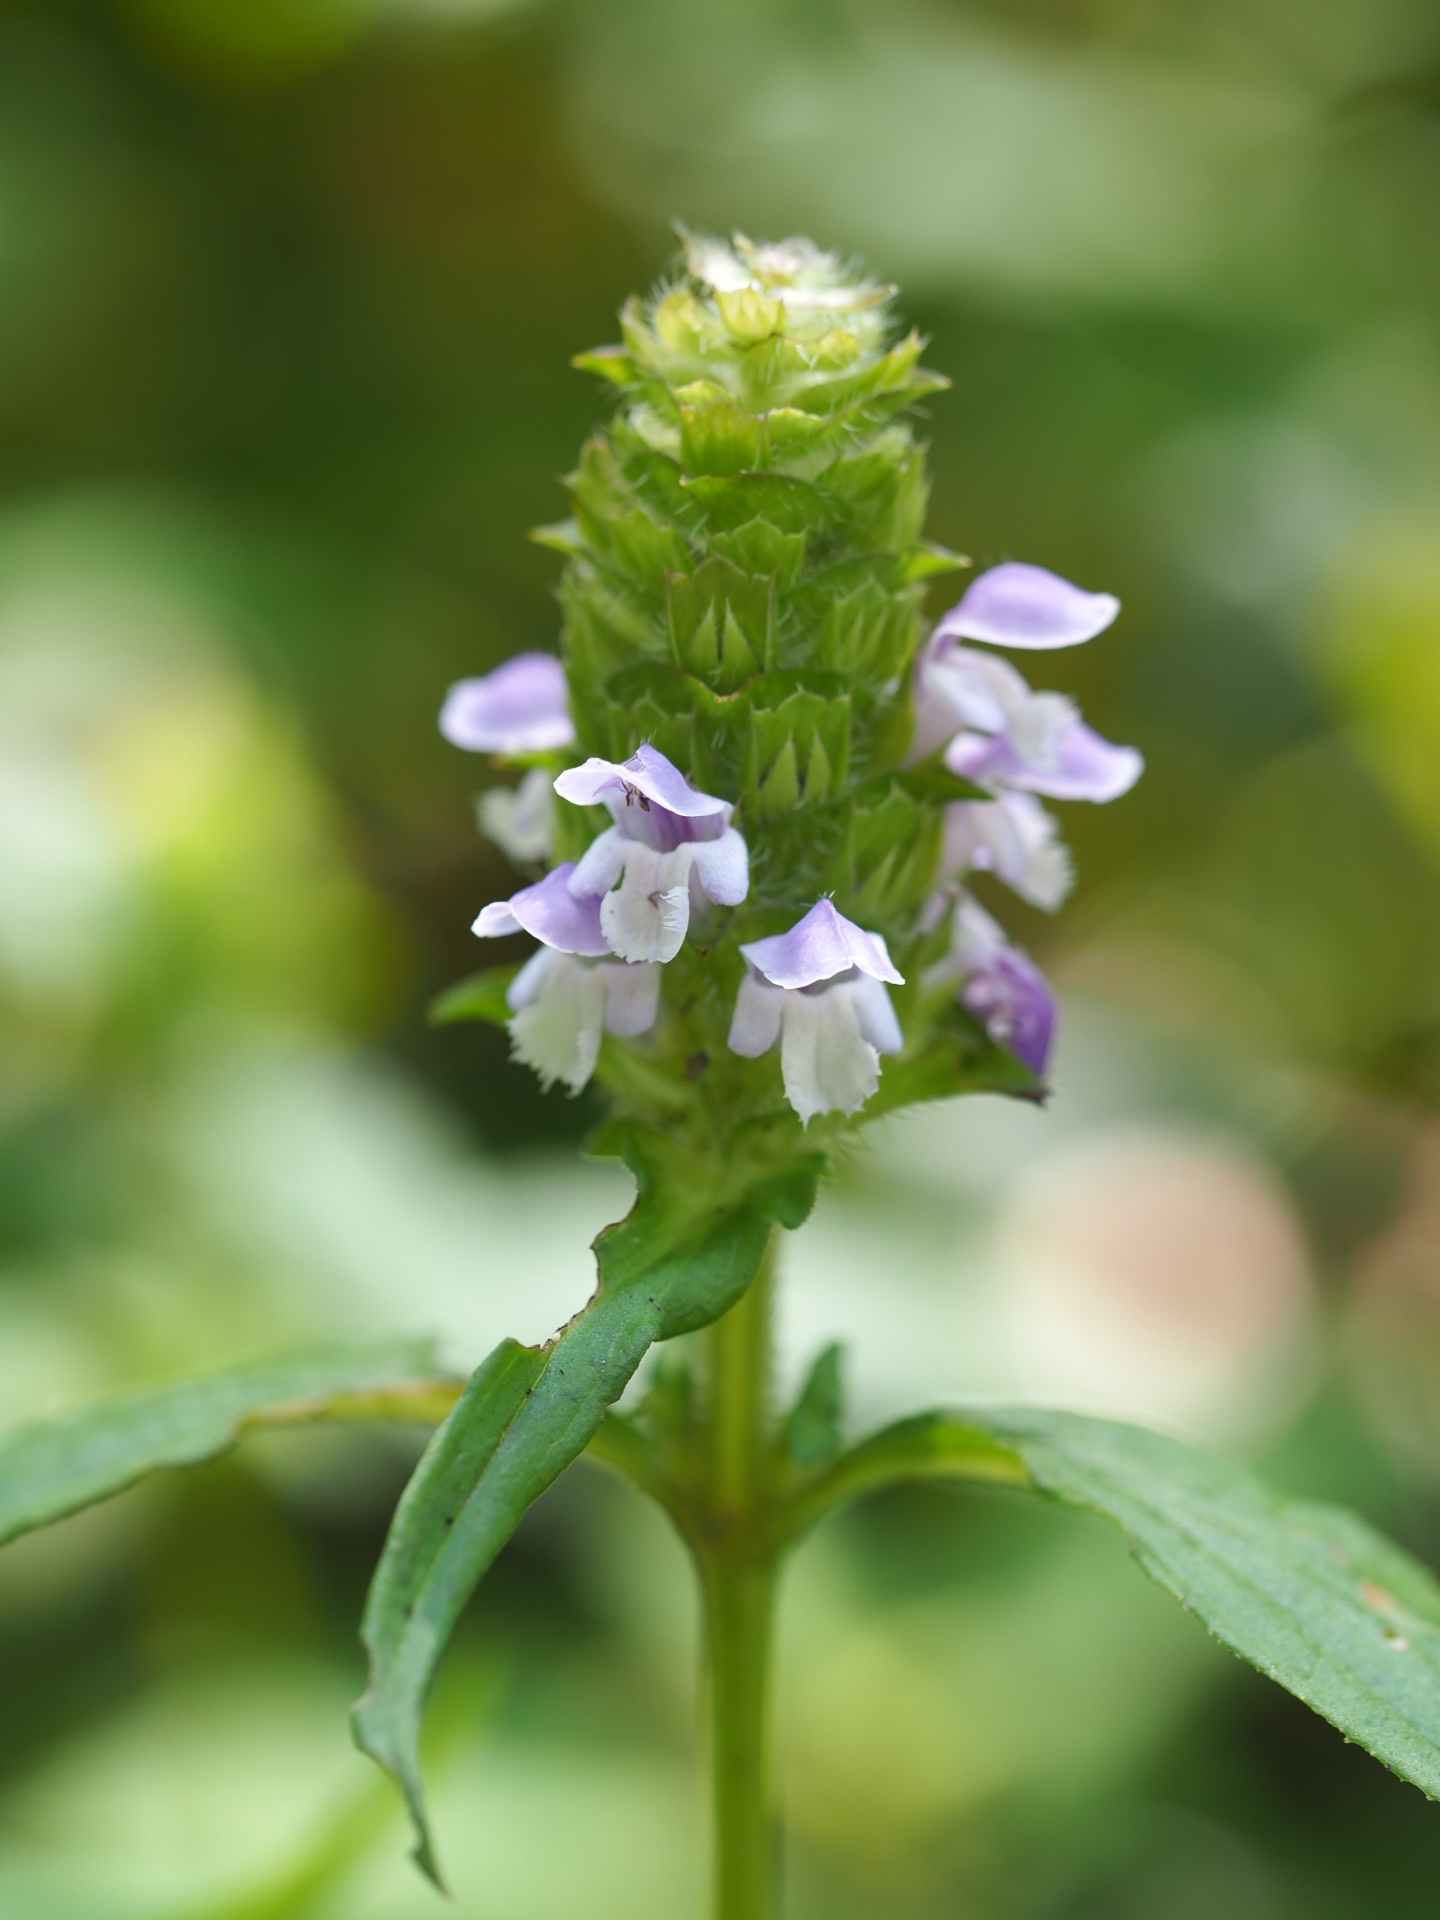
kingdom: Plantae
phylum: Tracheophyta
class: Magnoliopsida
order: Lamiales
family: Lamiaceae
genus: Prunella
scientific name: Prunella vulgaris
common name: Heal-all
